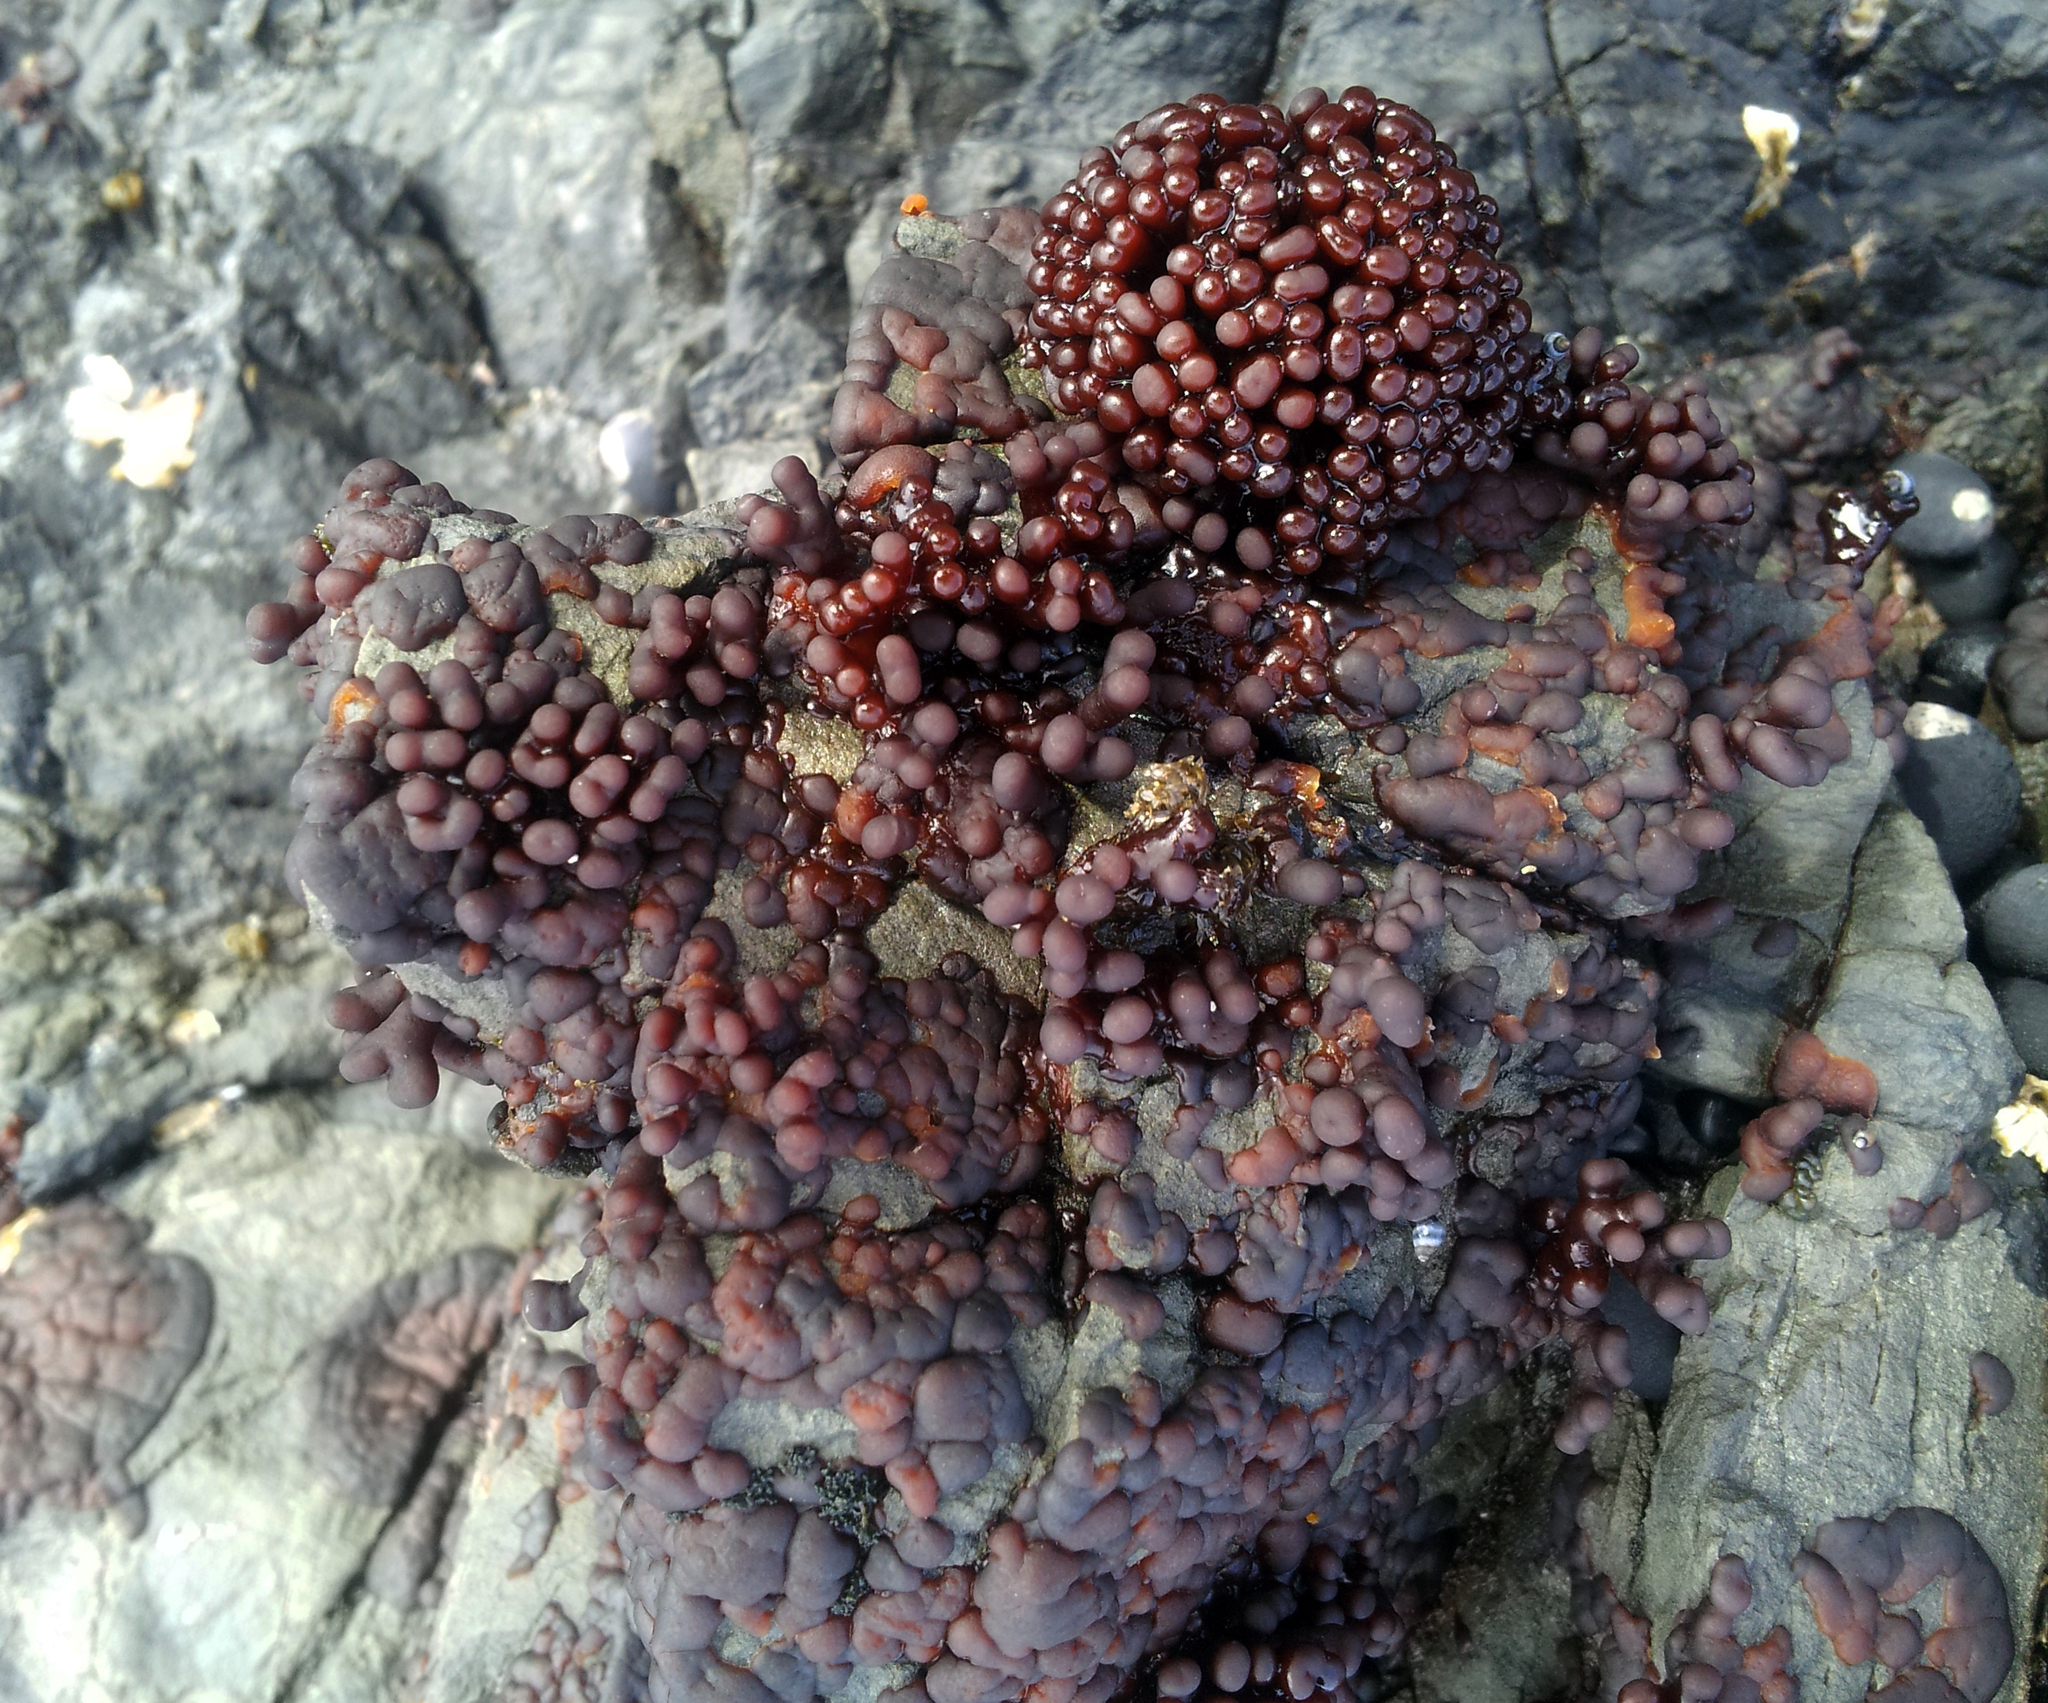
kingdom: Plantae
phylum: Rhodophyta
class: Florideophyceae
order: Hildenbrandiales
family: Hildenbrandiaceae
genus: Apophlaea
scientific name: Apophlaea sinclairii
